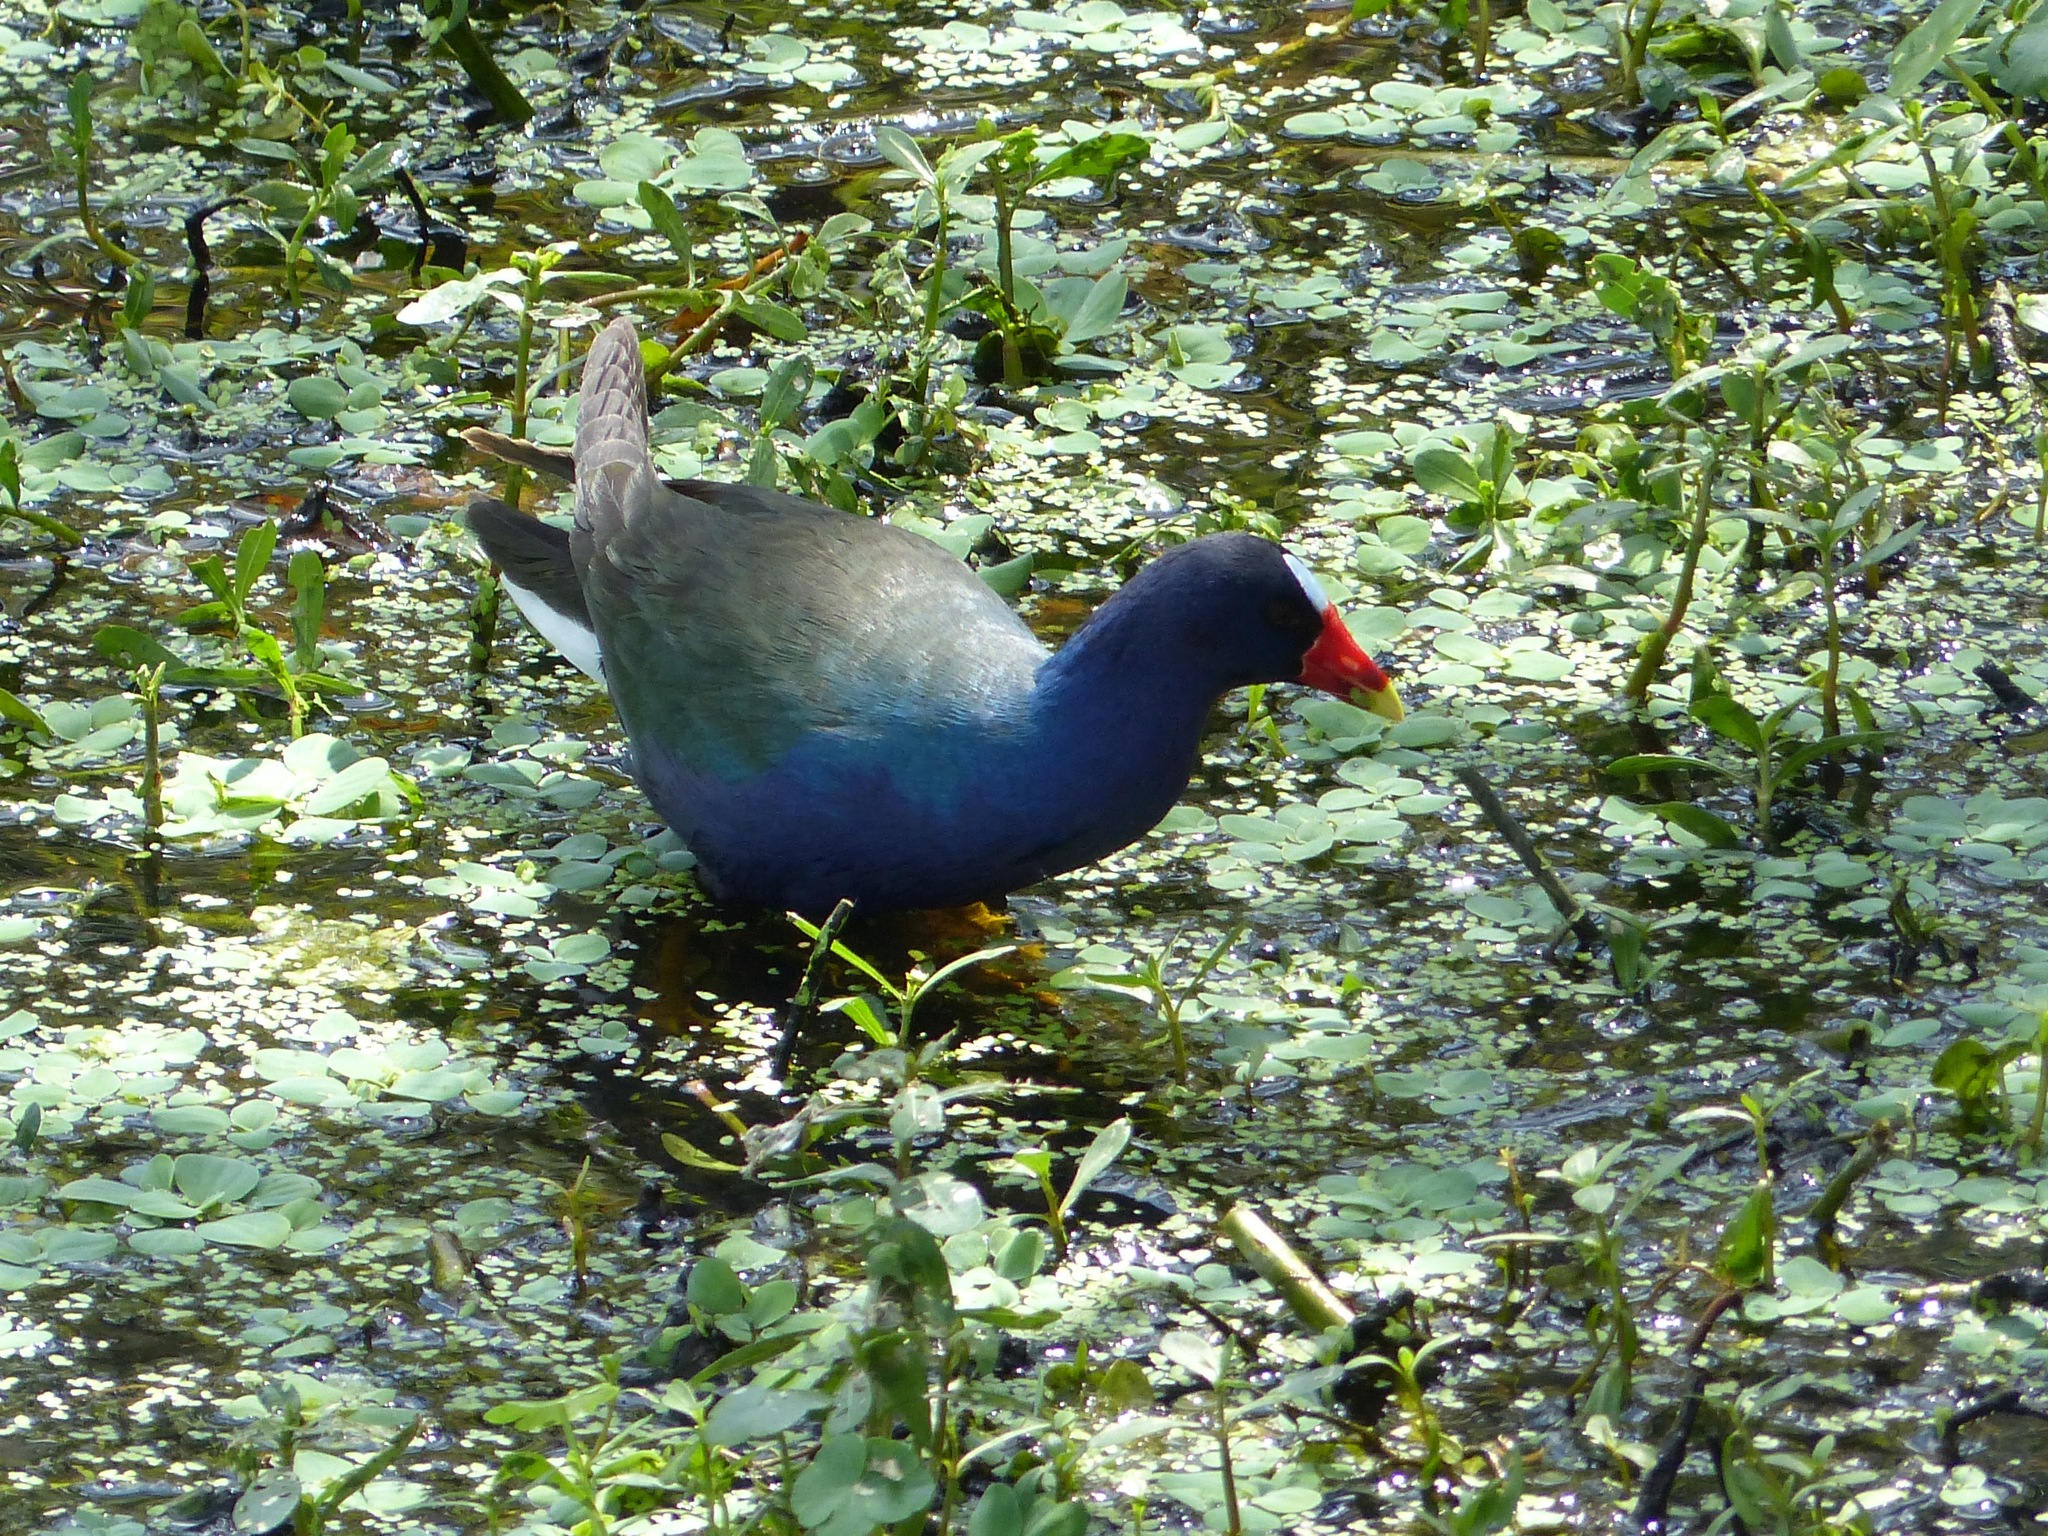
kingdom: Animalia
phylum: Chordata
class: Aves
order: Gruiformes
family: Rallidae
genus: Porphyrio
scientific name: Porphyrio martinica
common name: Purple gallinule
